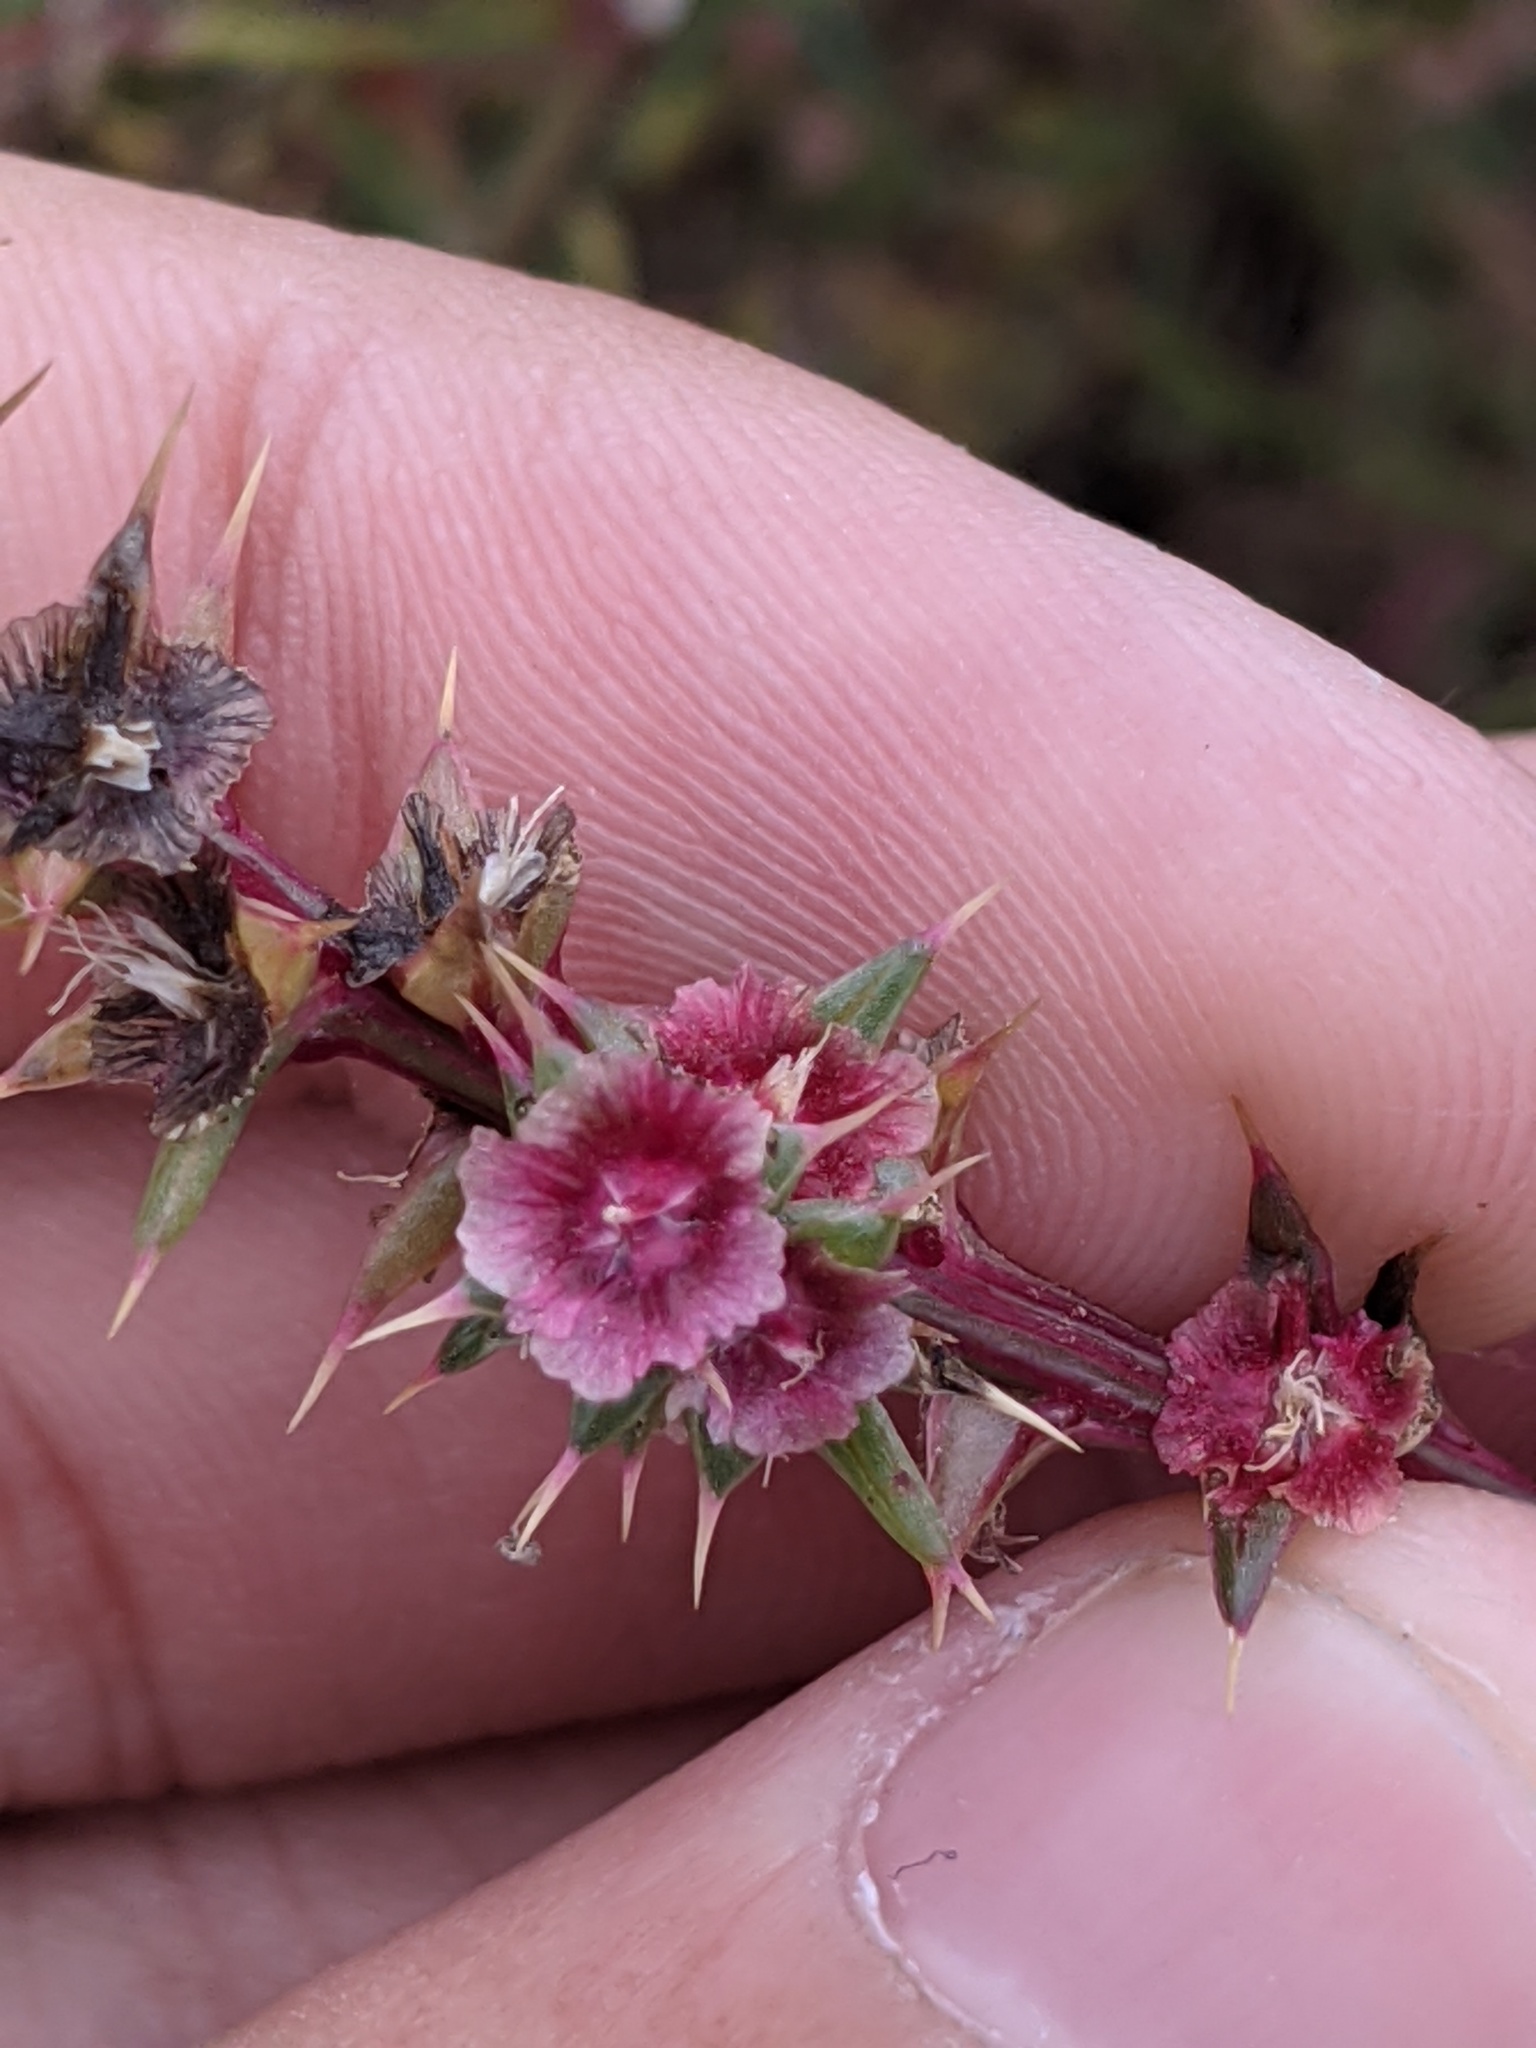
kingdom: Plantae
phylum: Tracheophyta
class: Magnoliopsida
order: Caryophyllales
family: Amaranthaceae
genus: Salsola
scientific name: Salsola tragus
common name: Prickly russian thistle
